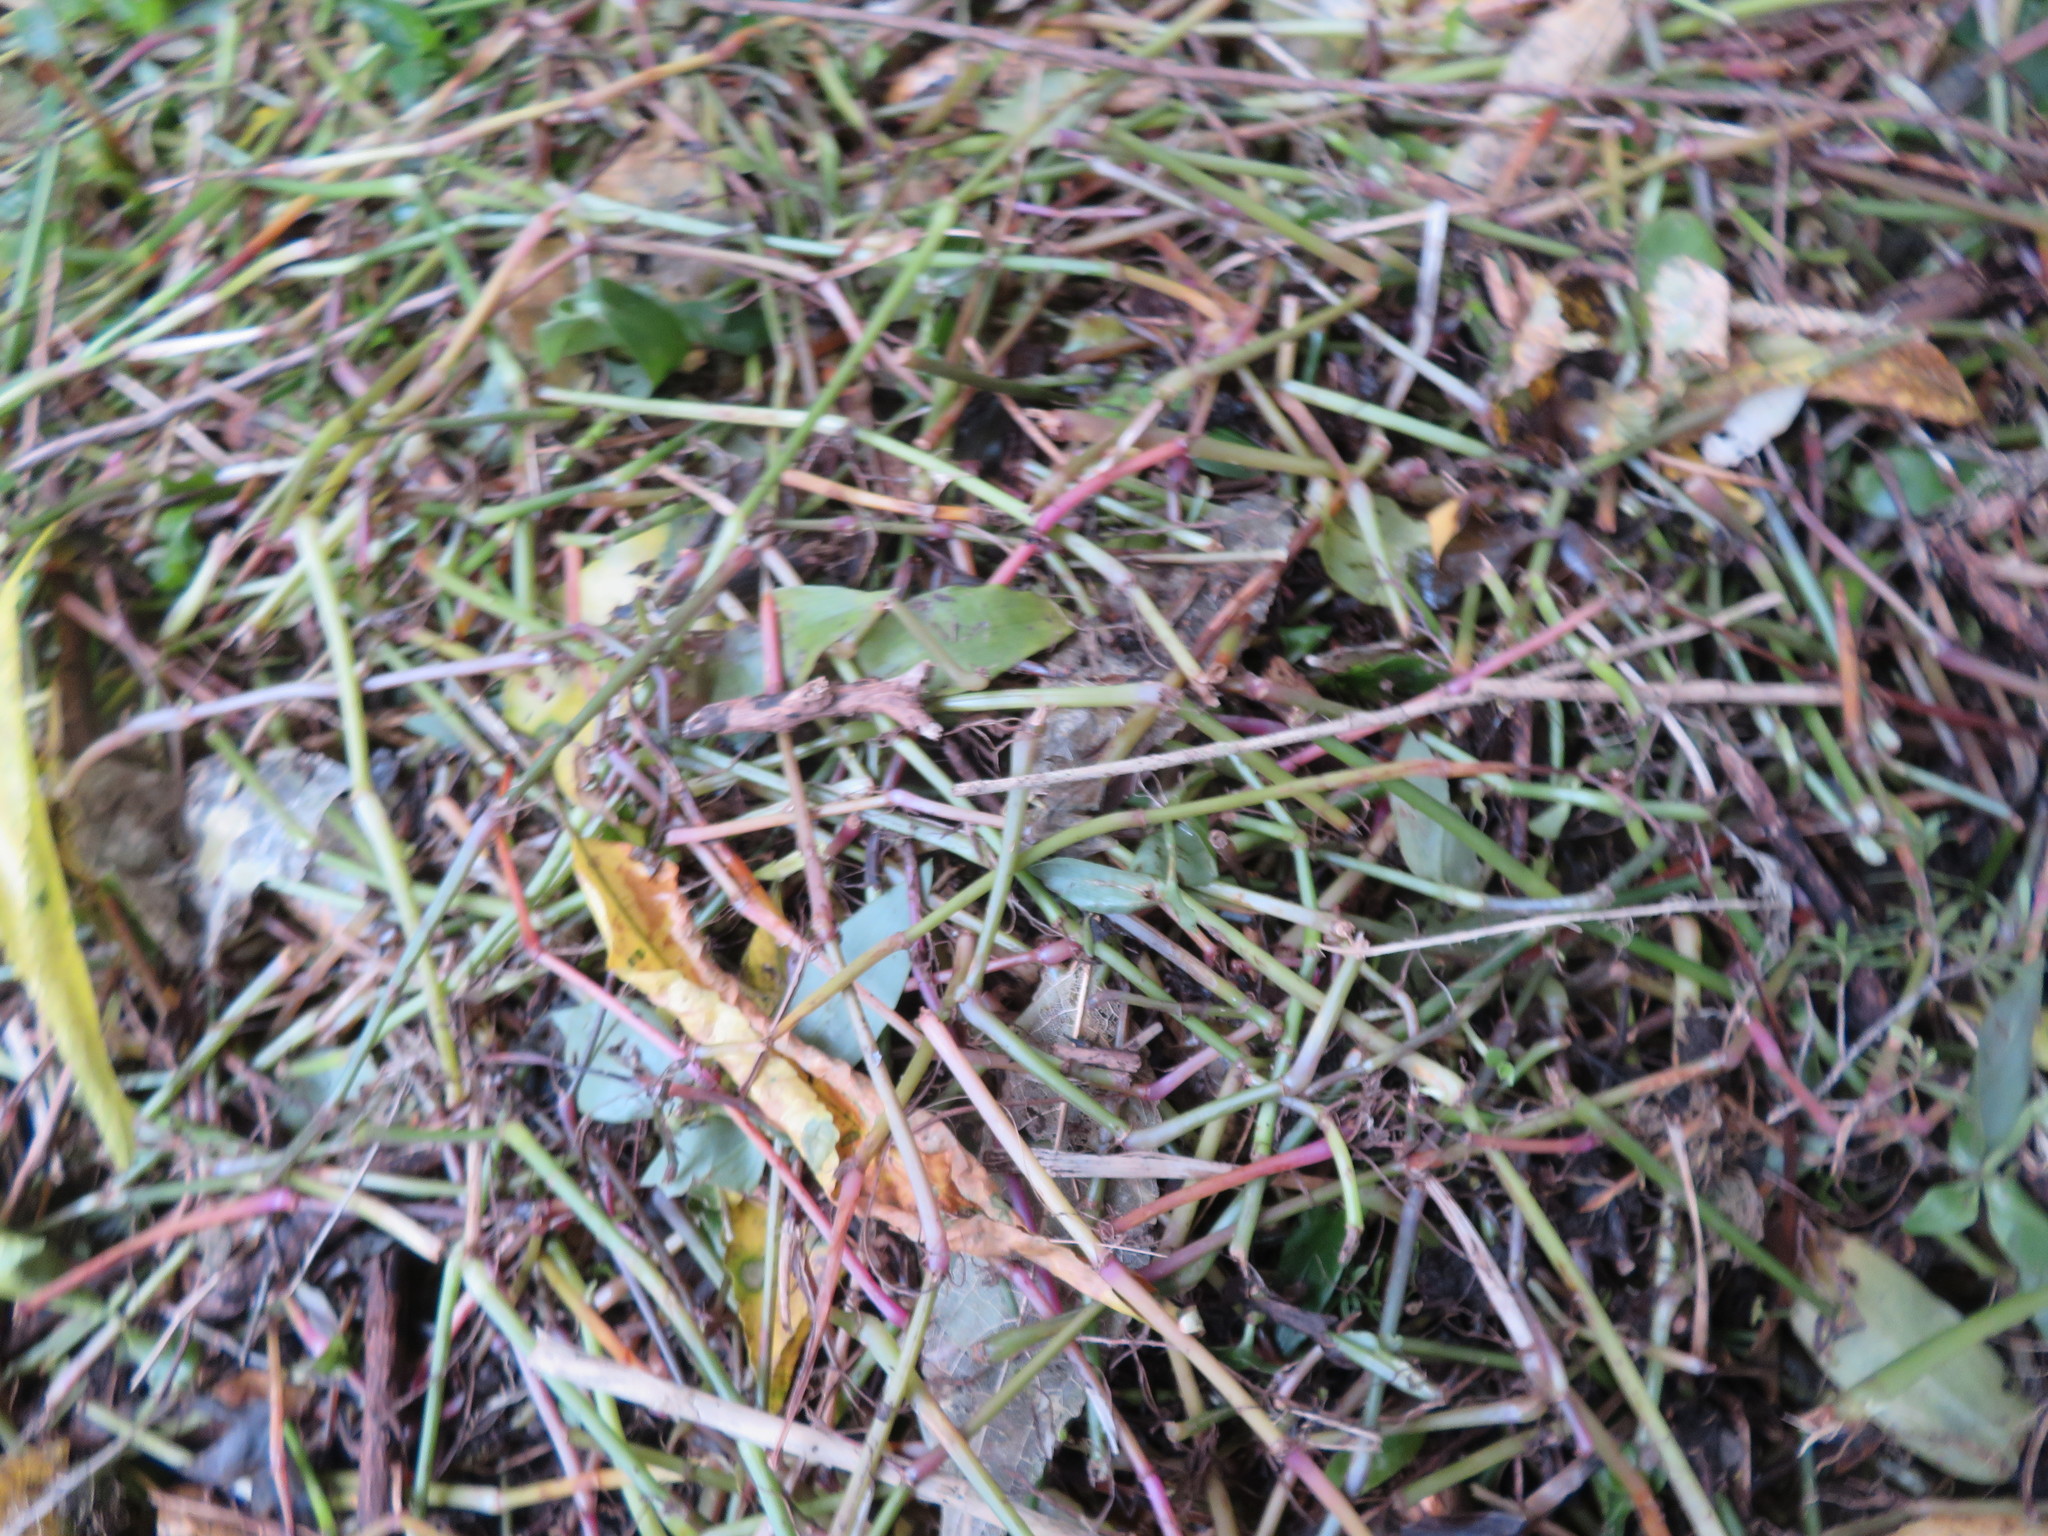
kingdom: Plantae
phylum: Tracheophyta
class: Liliopsida
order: Commelinales
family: Commelinaceae
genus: Tradescantia
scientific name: Tradescantia fluminensis
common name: Wandering-jew
